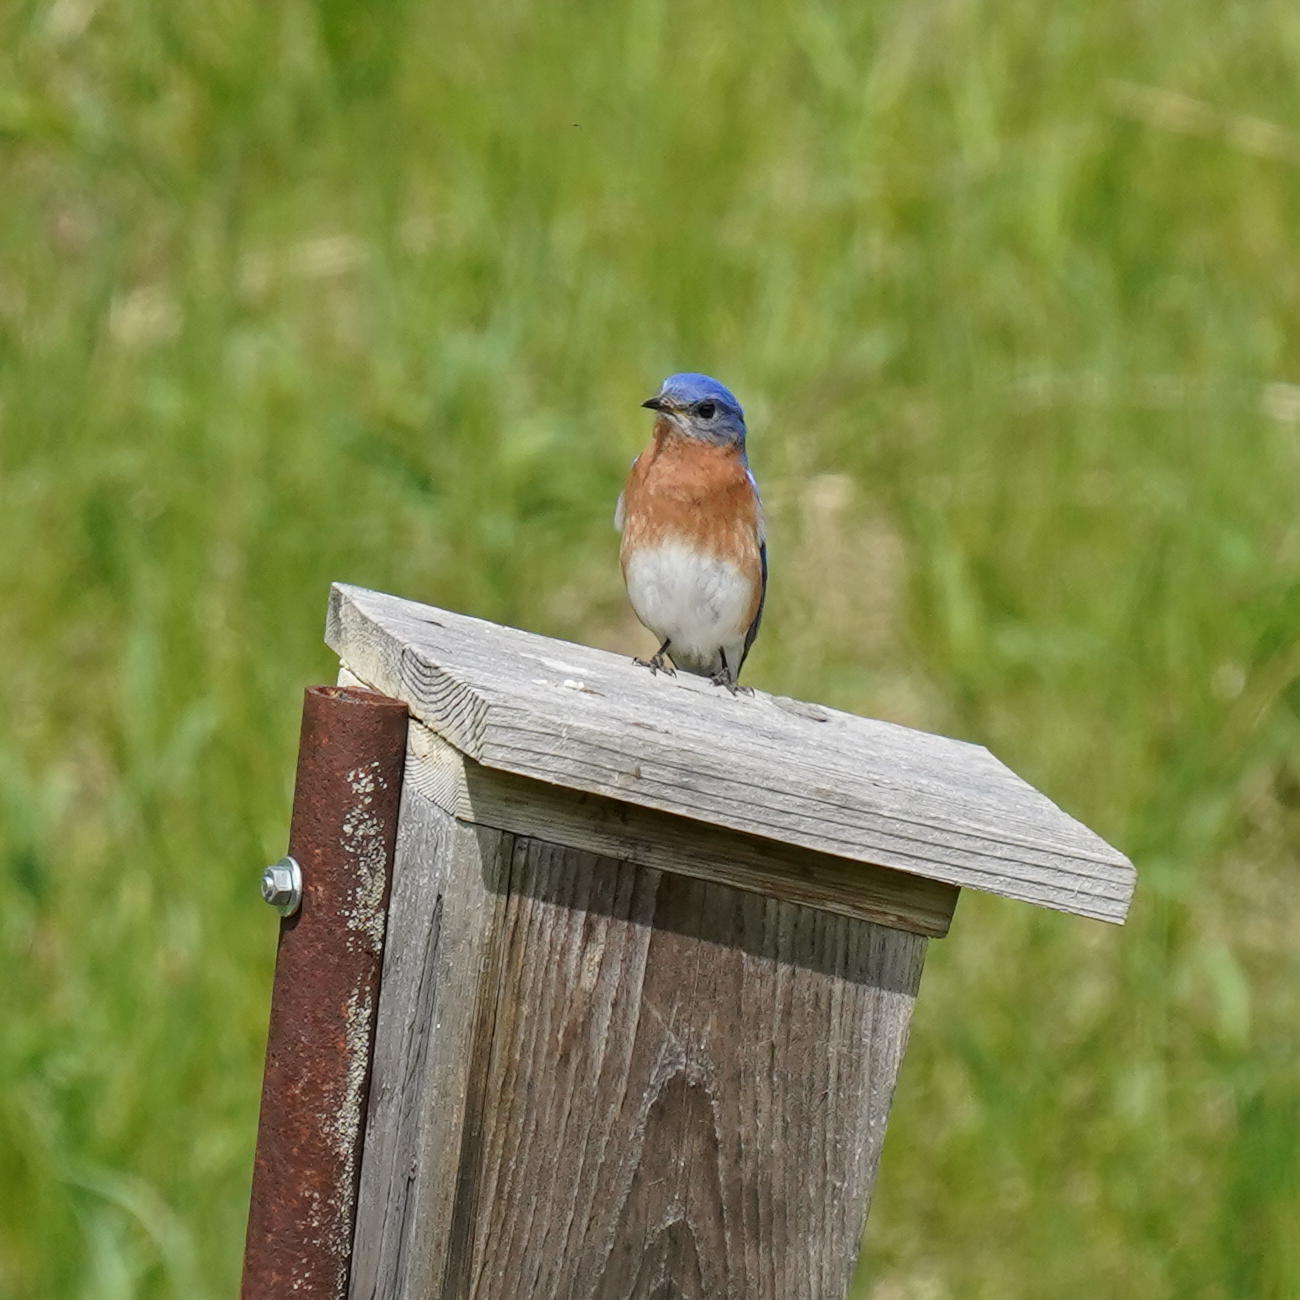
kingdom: Animalia
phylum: Chordata
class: Aves
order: Passeriformes
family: Turdidae
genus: Sialia
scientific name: Sialia sialis
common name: Eastern bluebird
